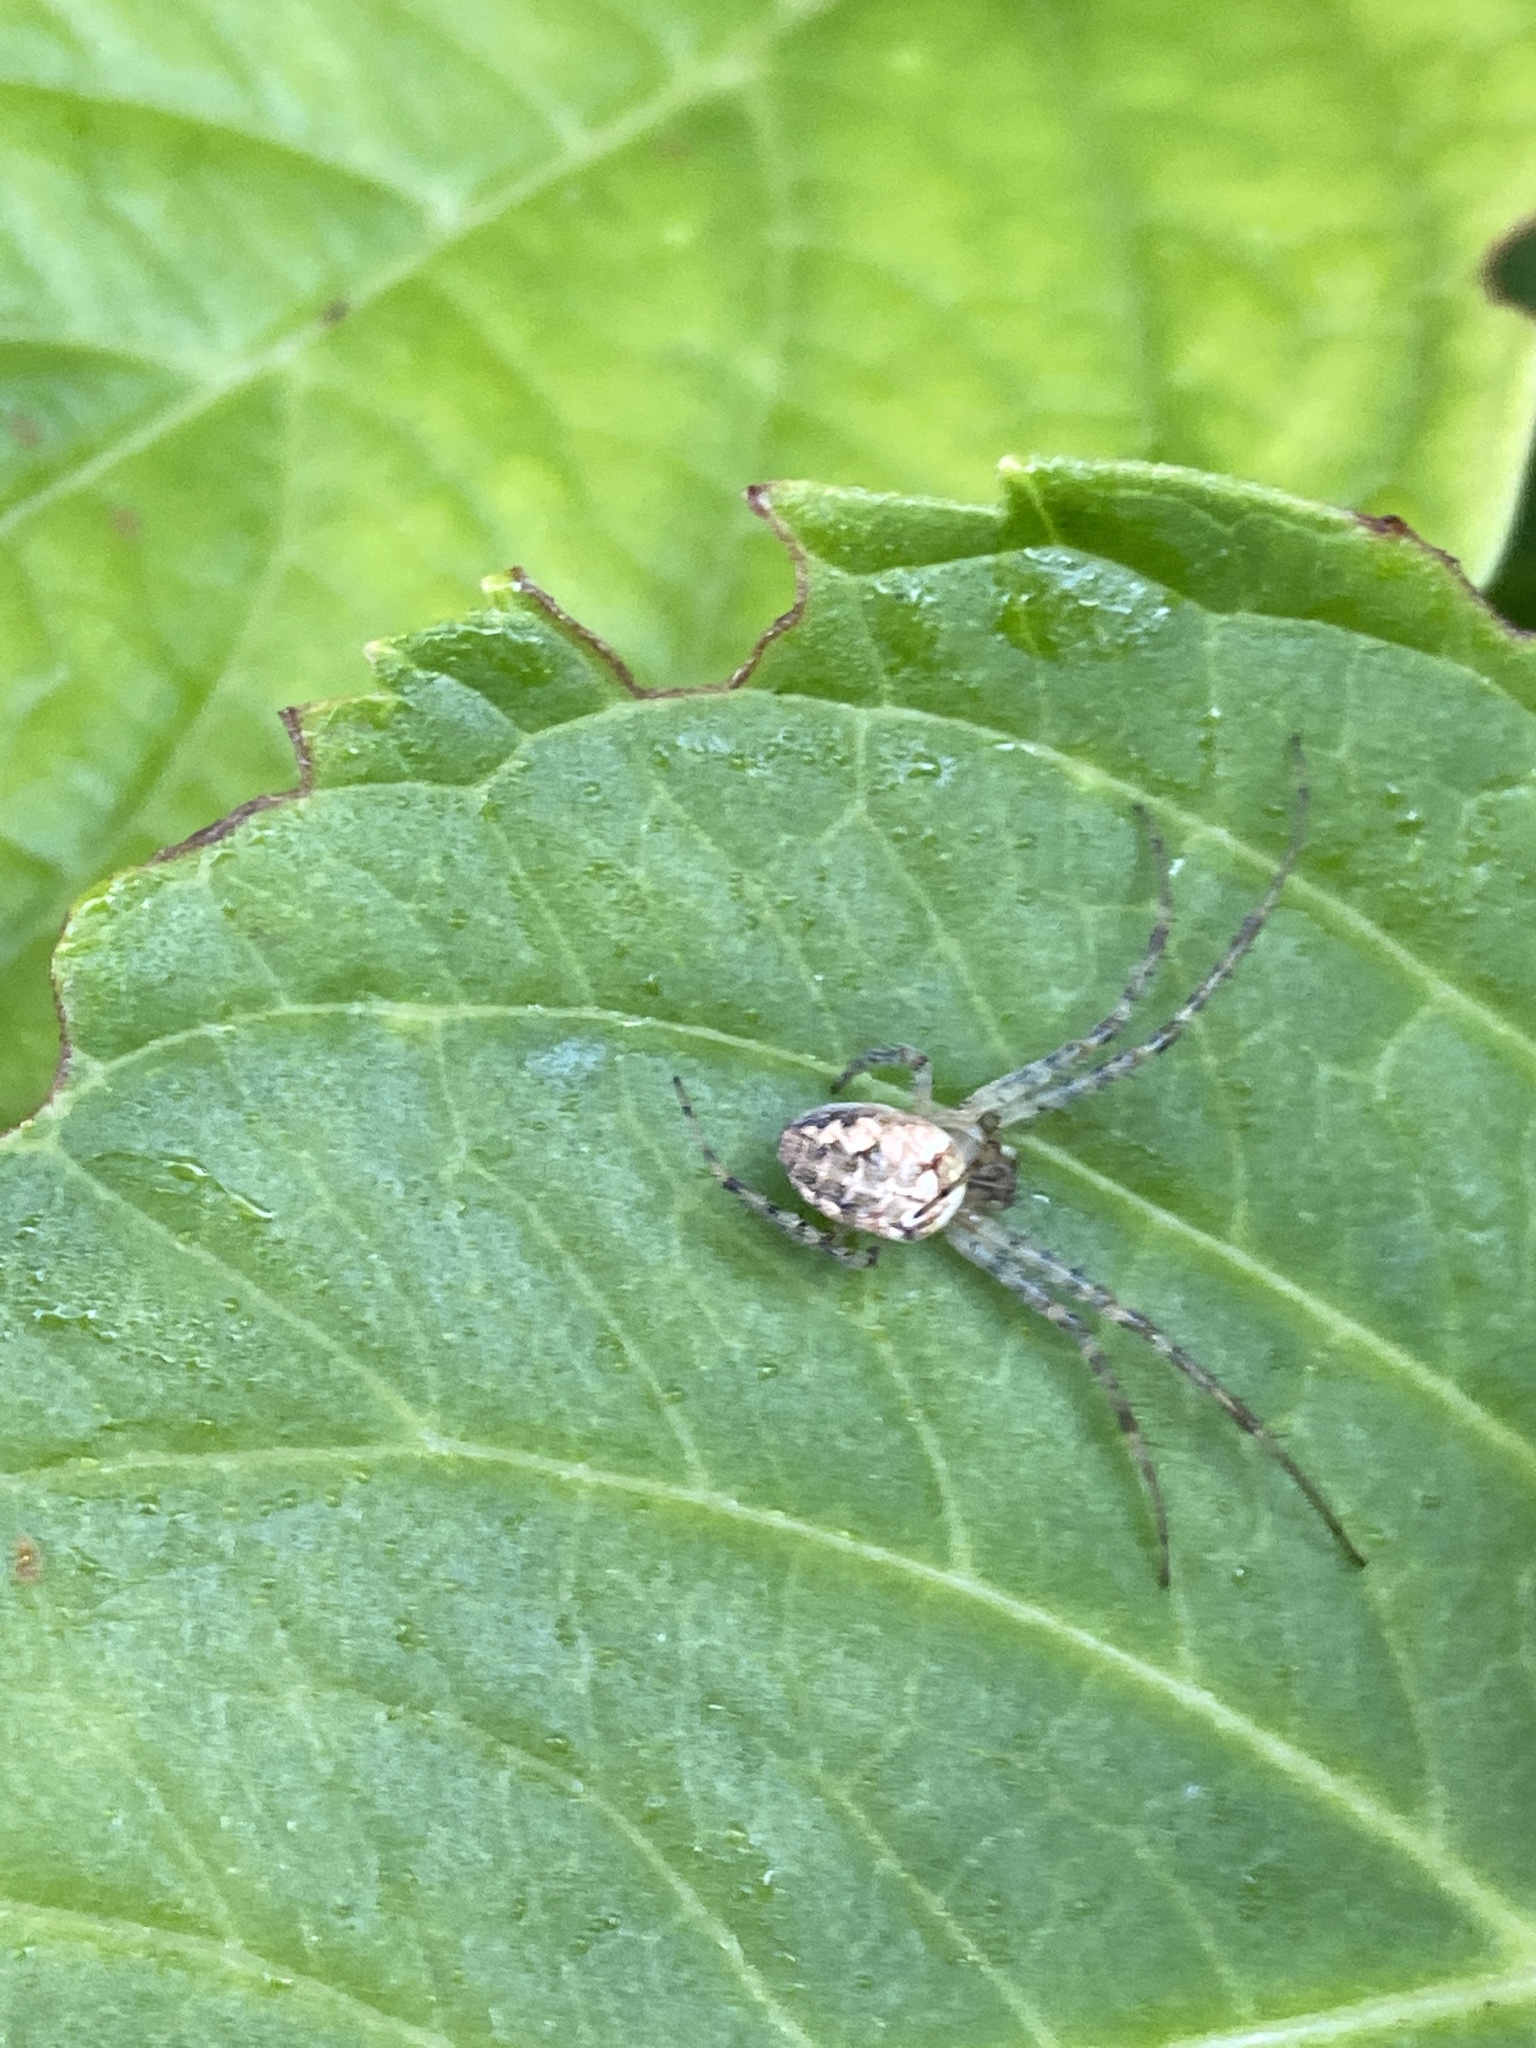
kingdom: Animalia
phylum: Arthropoda
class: Arachnida
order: Araneae
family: Tetragnathidae
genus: Metellina
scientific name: Metellina
